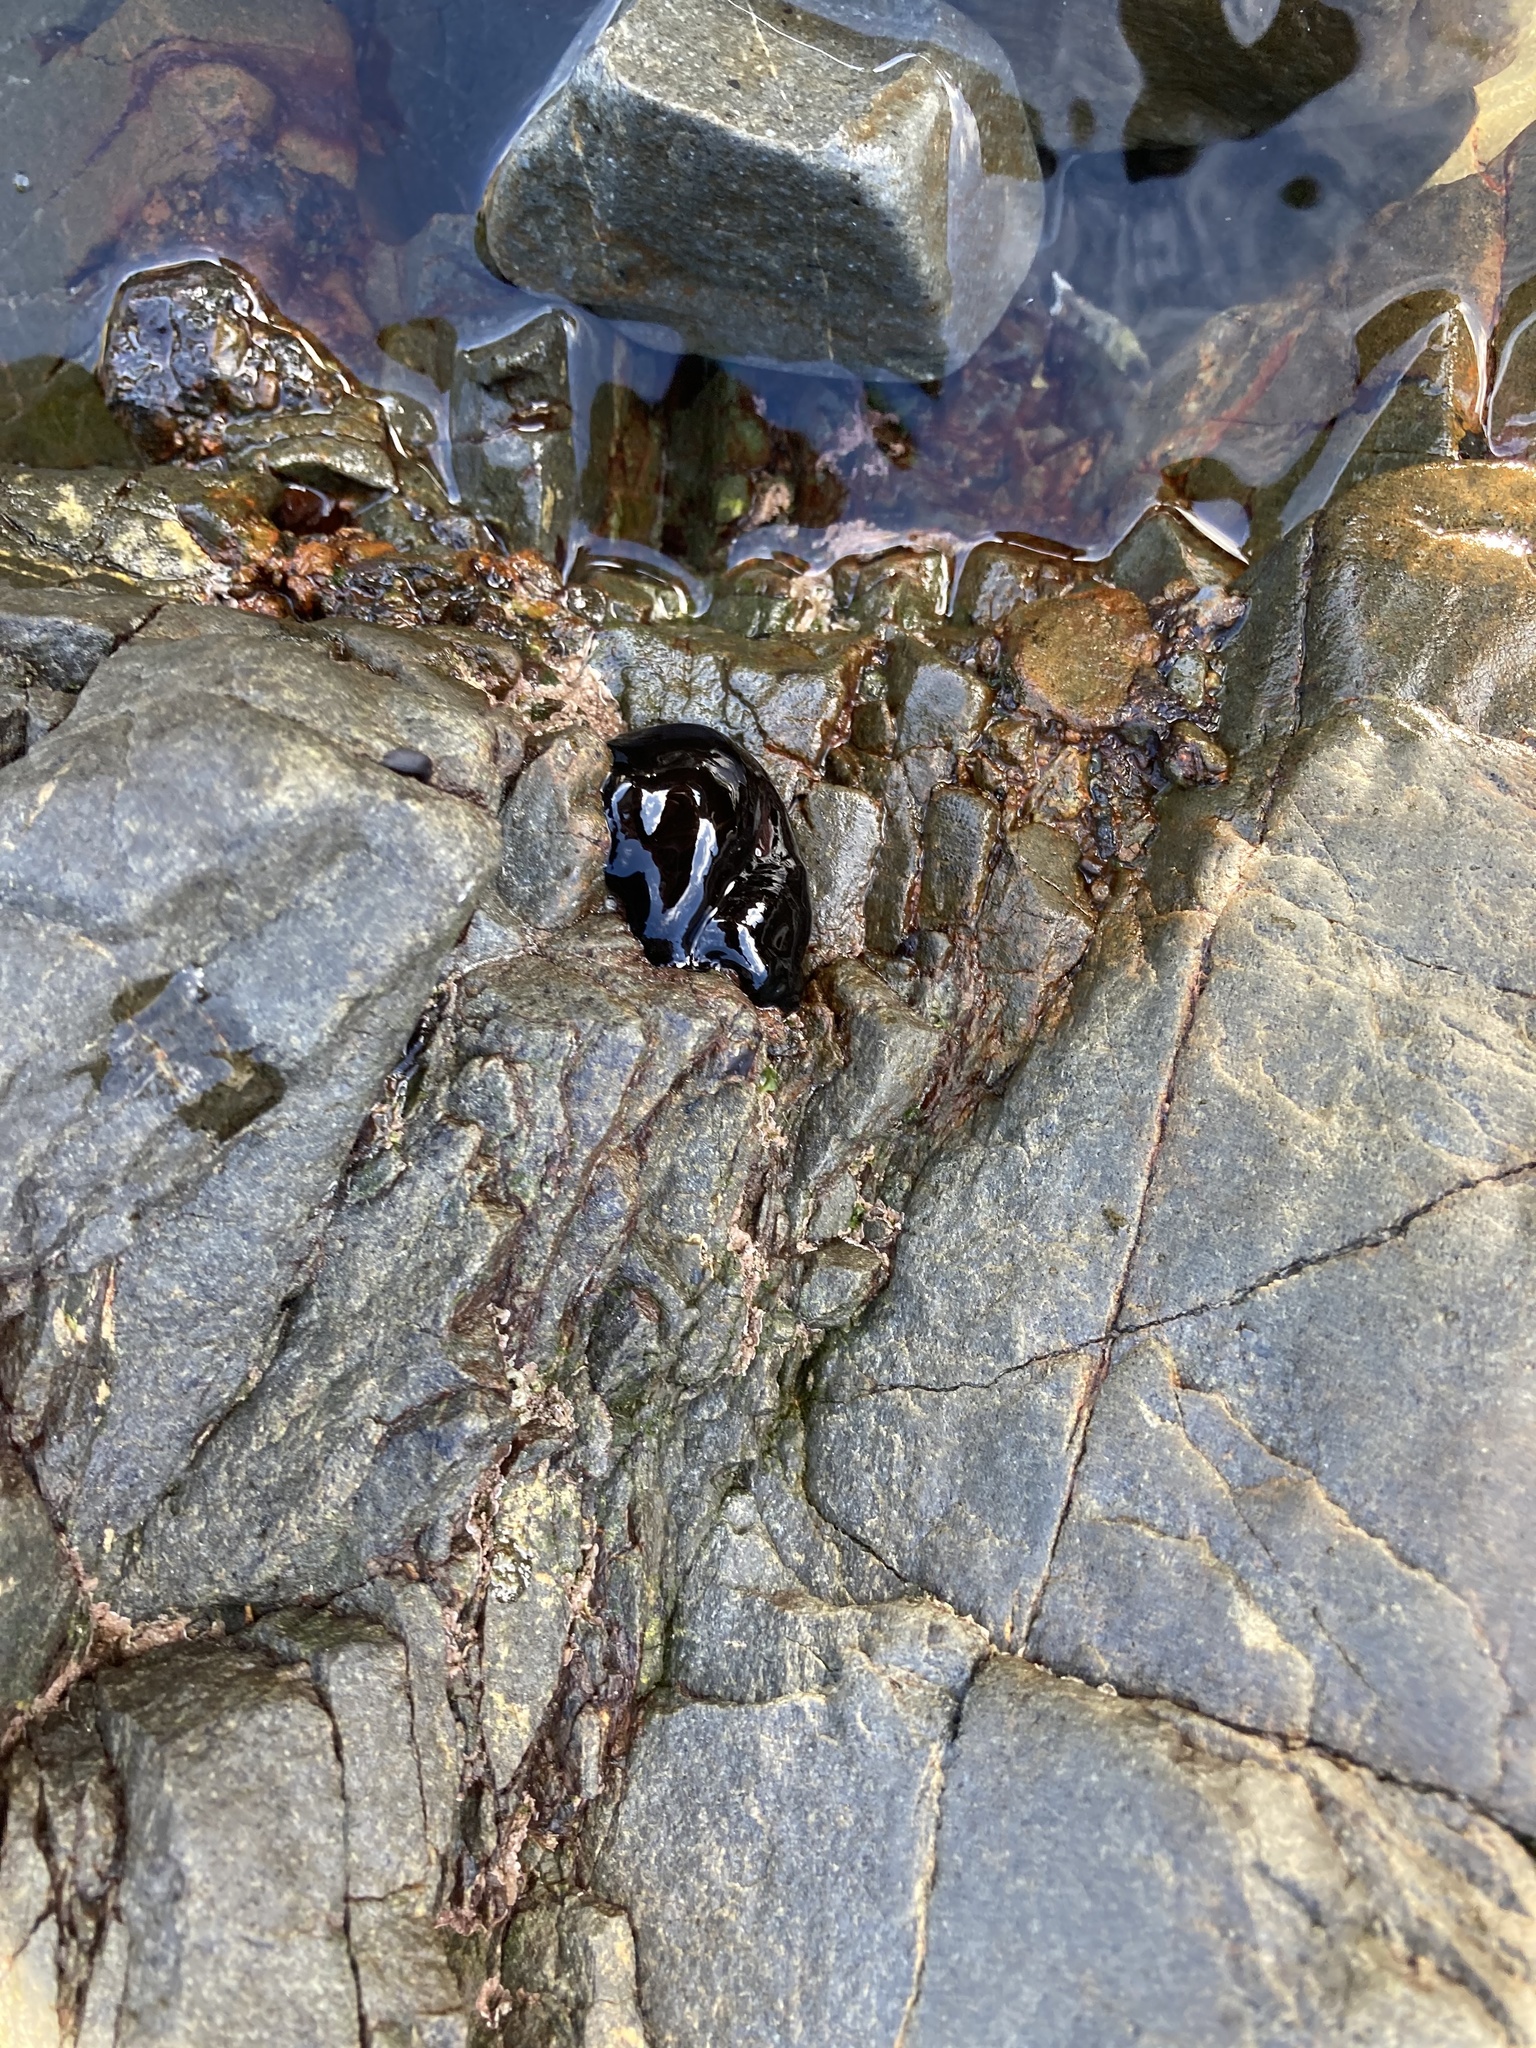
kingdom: Animalia
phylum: Cnidaria
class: Anthozoa
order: Actiniaria
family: Actiniidae
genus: Actinia
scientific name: Actinia tenebrosa
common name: Waratah anemone
